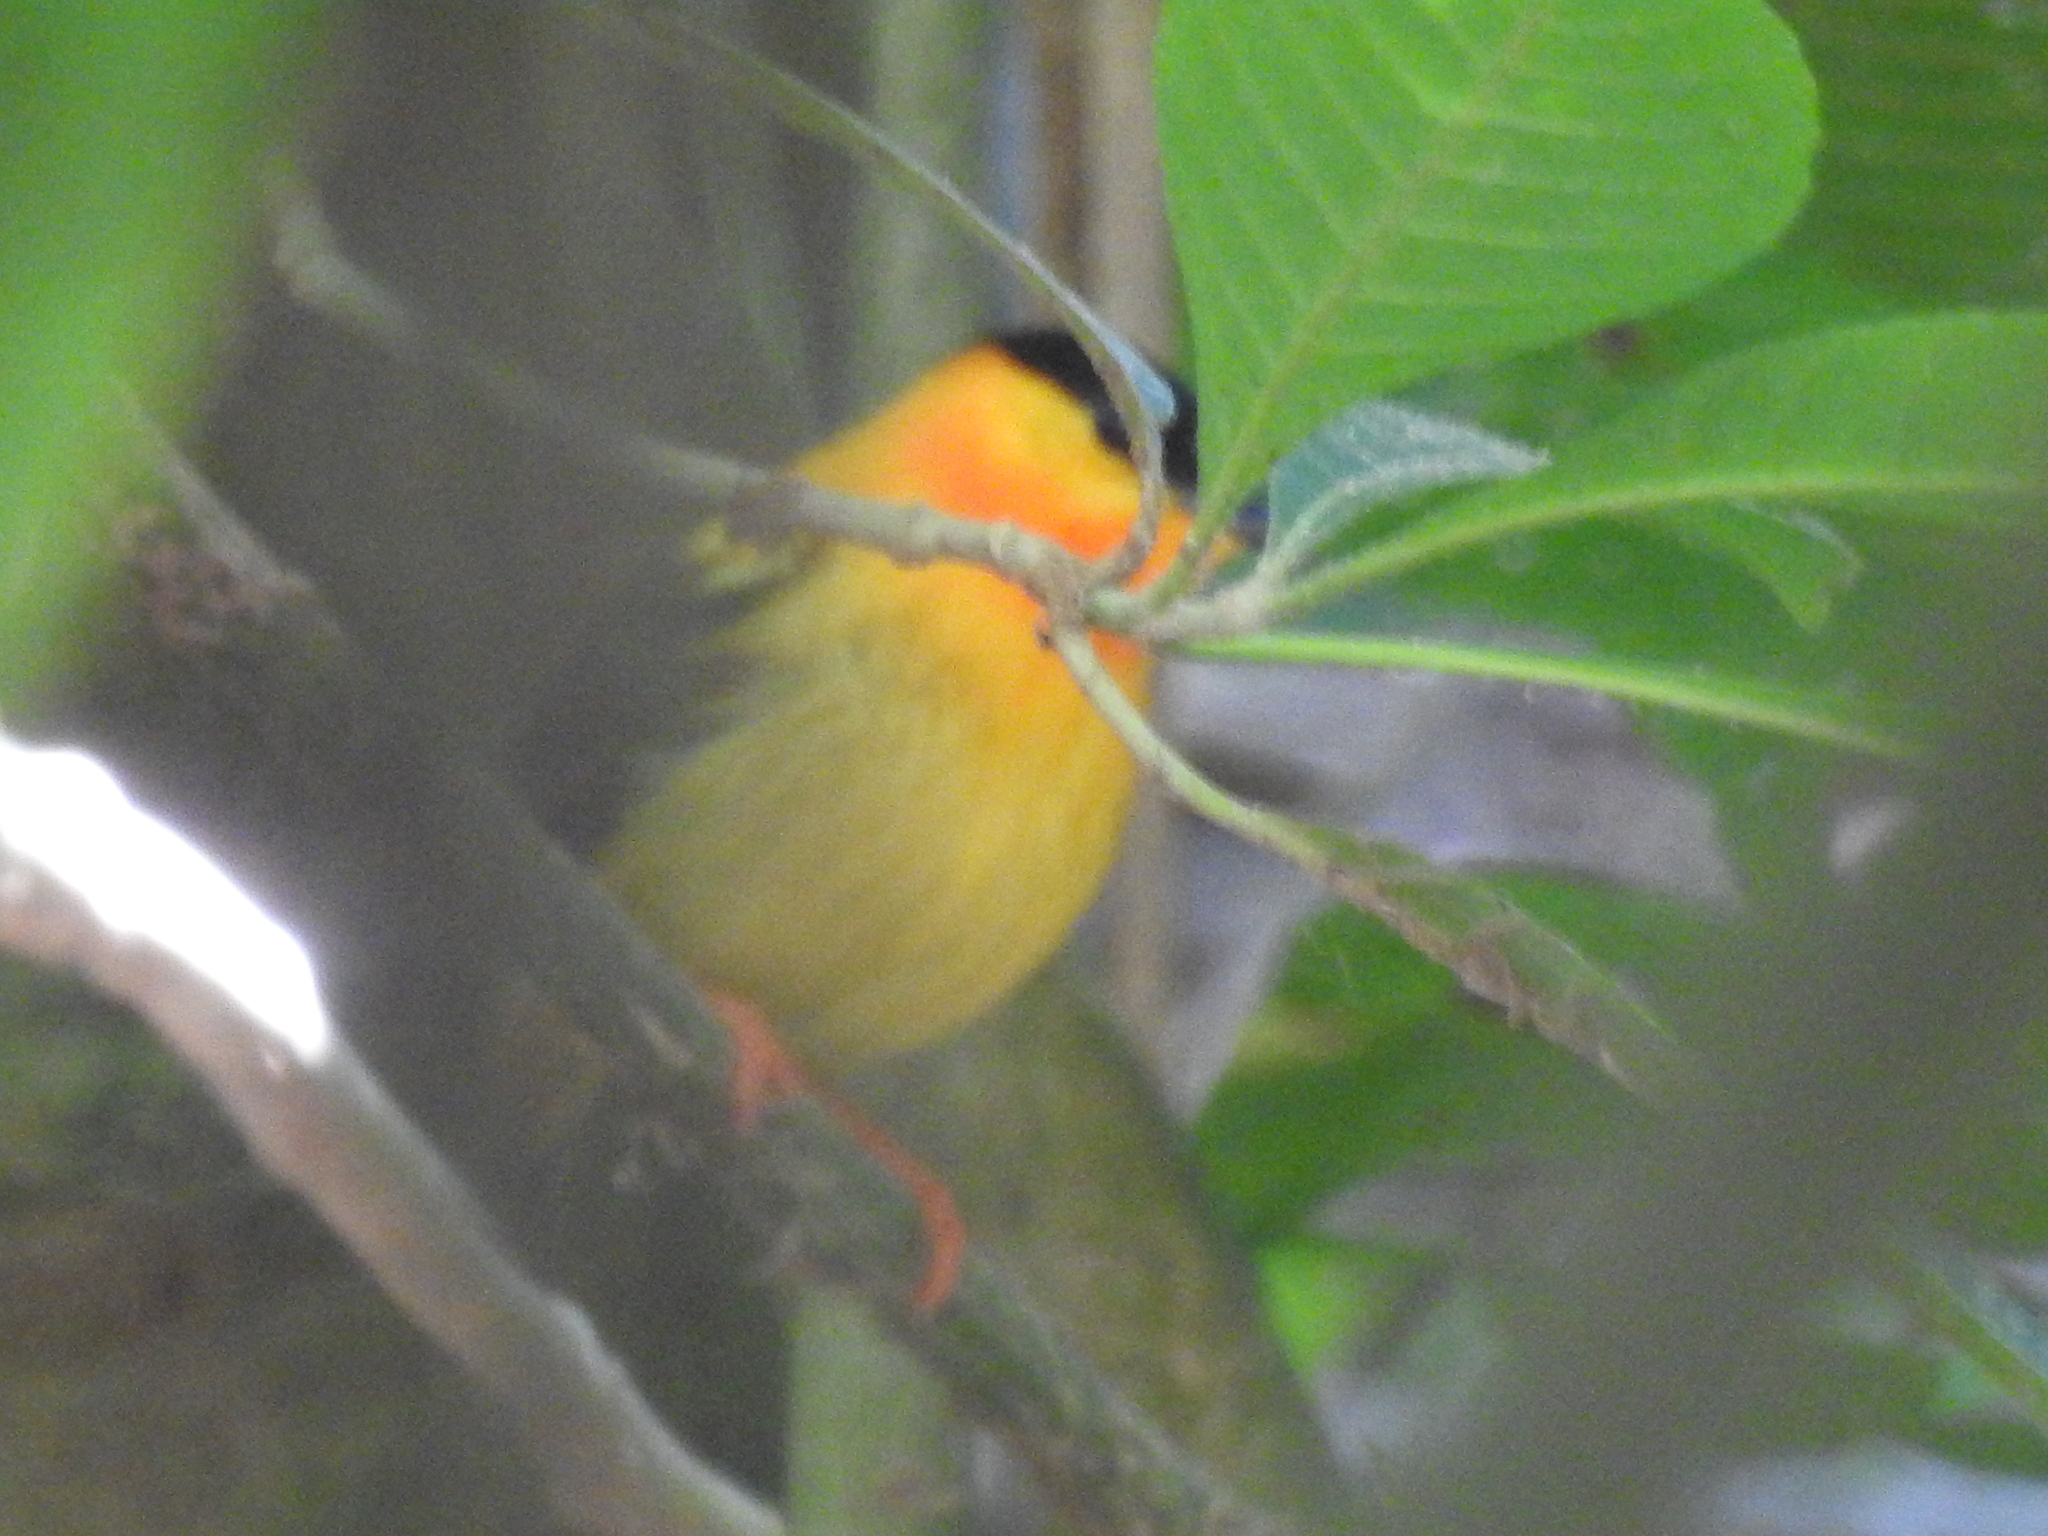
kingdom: Animalia
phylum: Chordata
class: Aves
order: Passeriformes
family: Pipridae
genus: Manacus
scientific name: Manacus aurantiacus
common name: Orange-collared manakin
